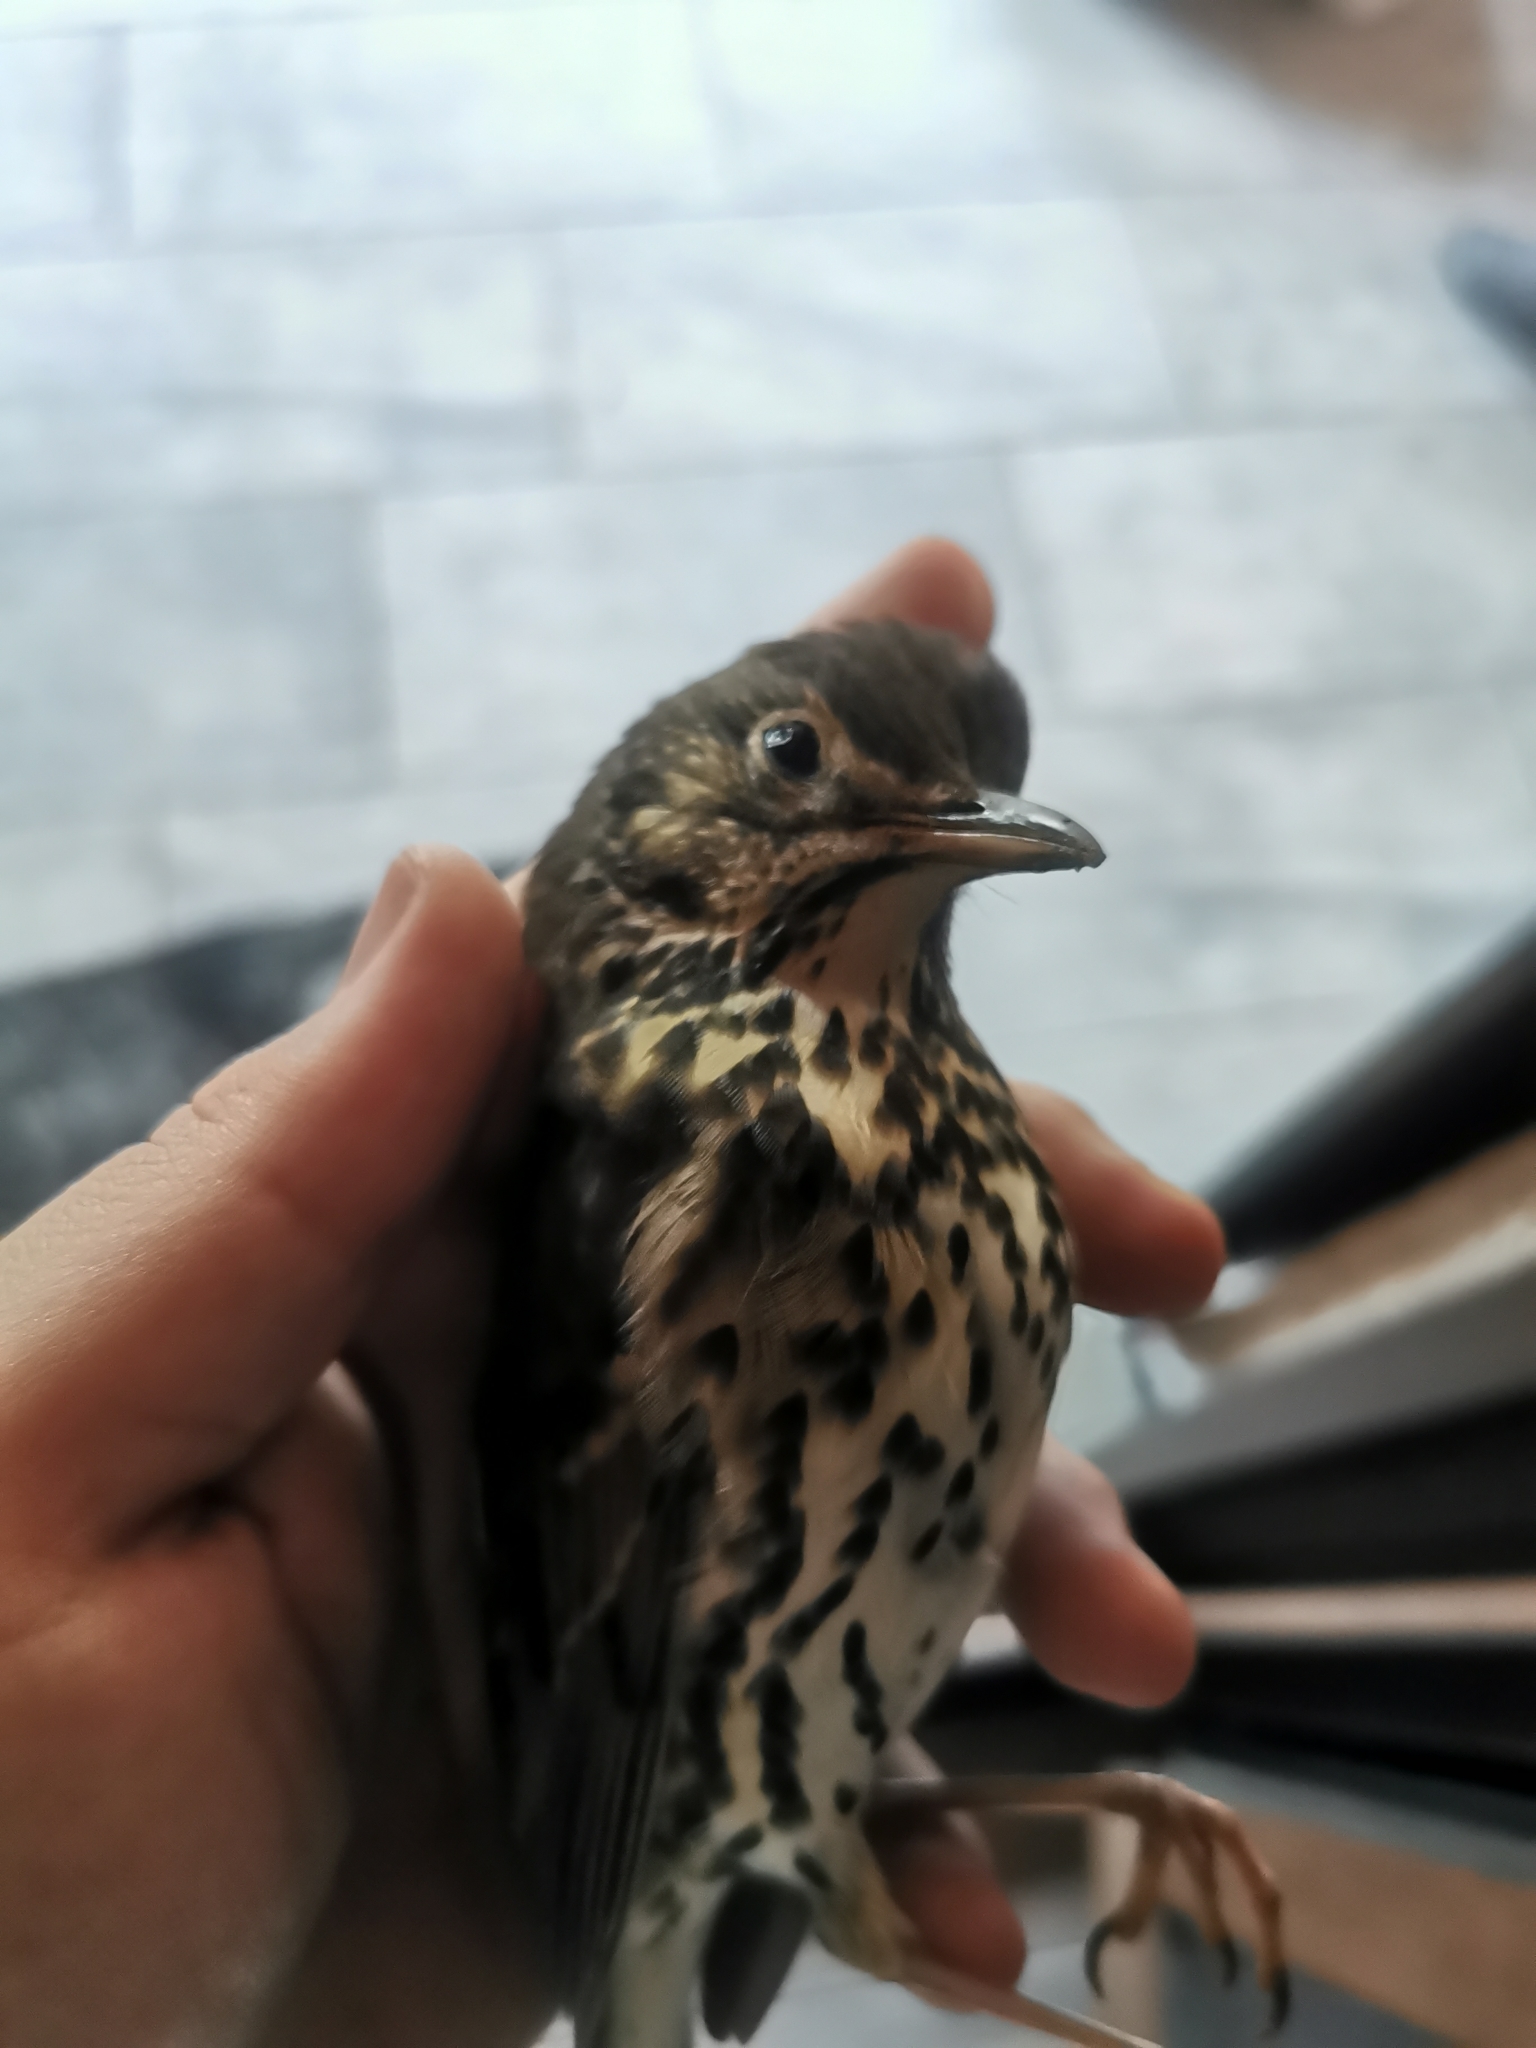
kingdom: Animalia
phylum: Chordata
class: Aves
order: Passeriformes
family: Turdidae
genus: Turdus
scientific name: Turdus philomelos
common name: Song thrush
